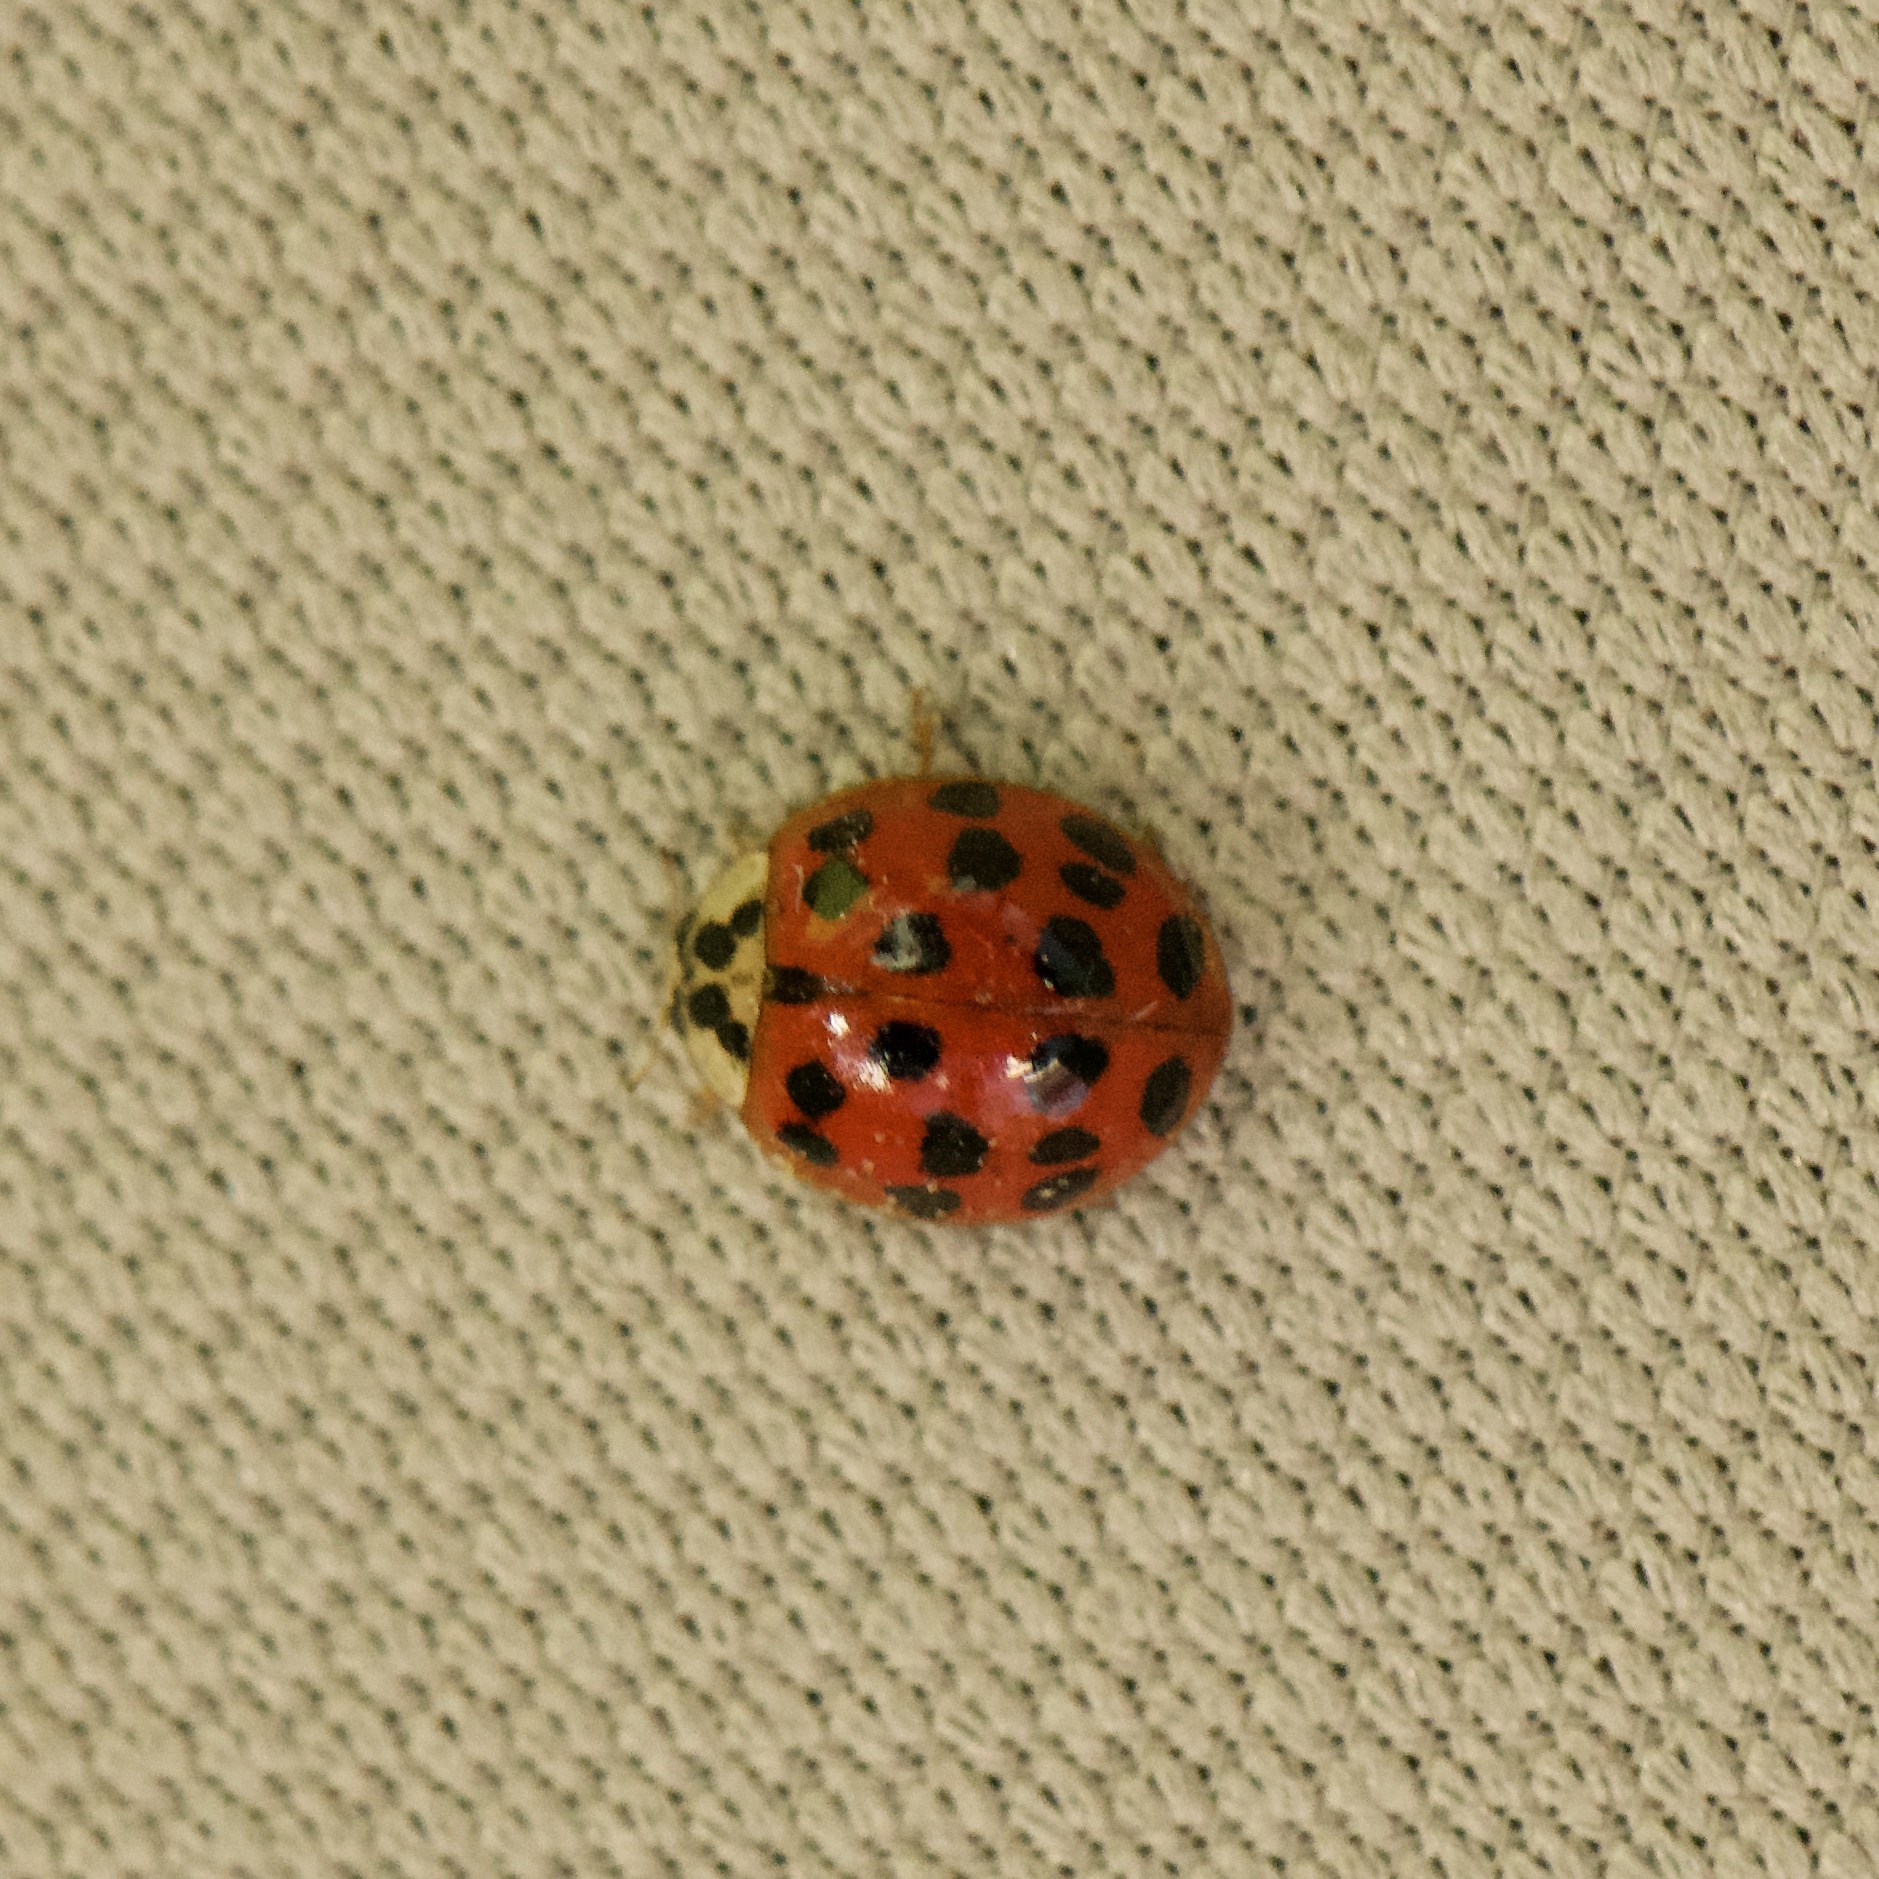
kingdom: Animalia
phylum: Arthropoda
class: Insecta
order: Coleoptera
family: Coccinellidae
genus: Harmonia
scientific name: Harmonia axyridis
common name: Harlequin ladybird
